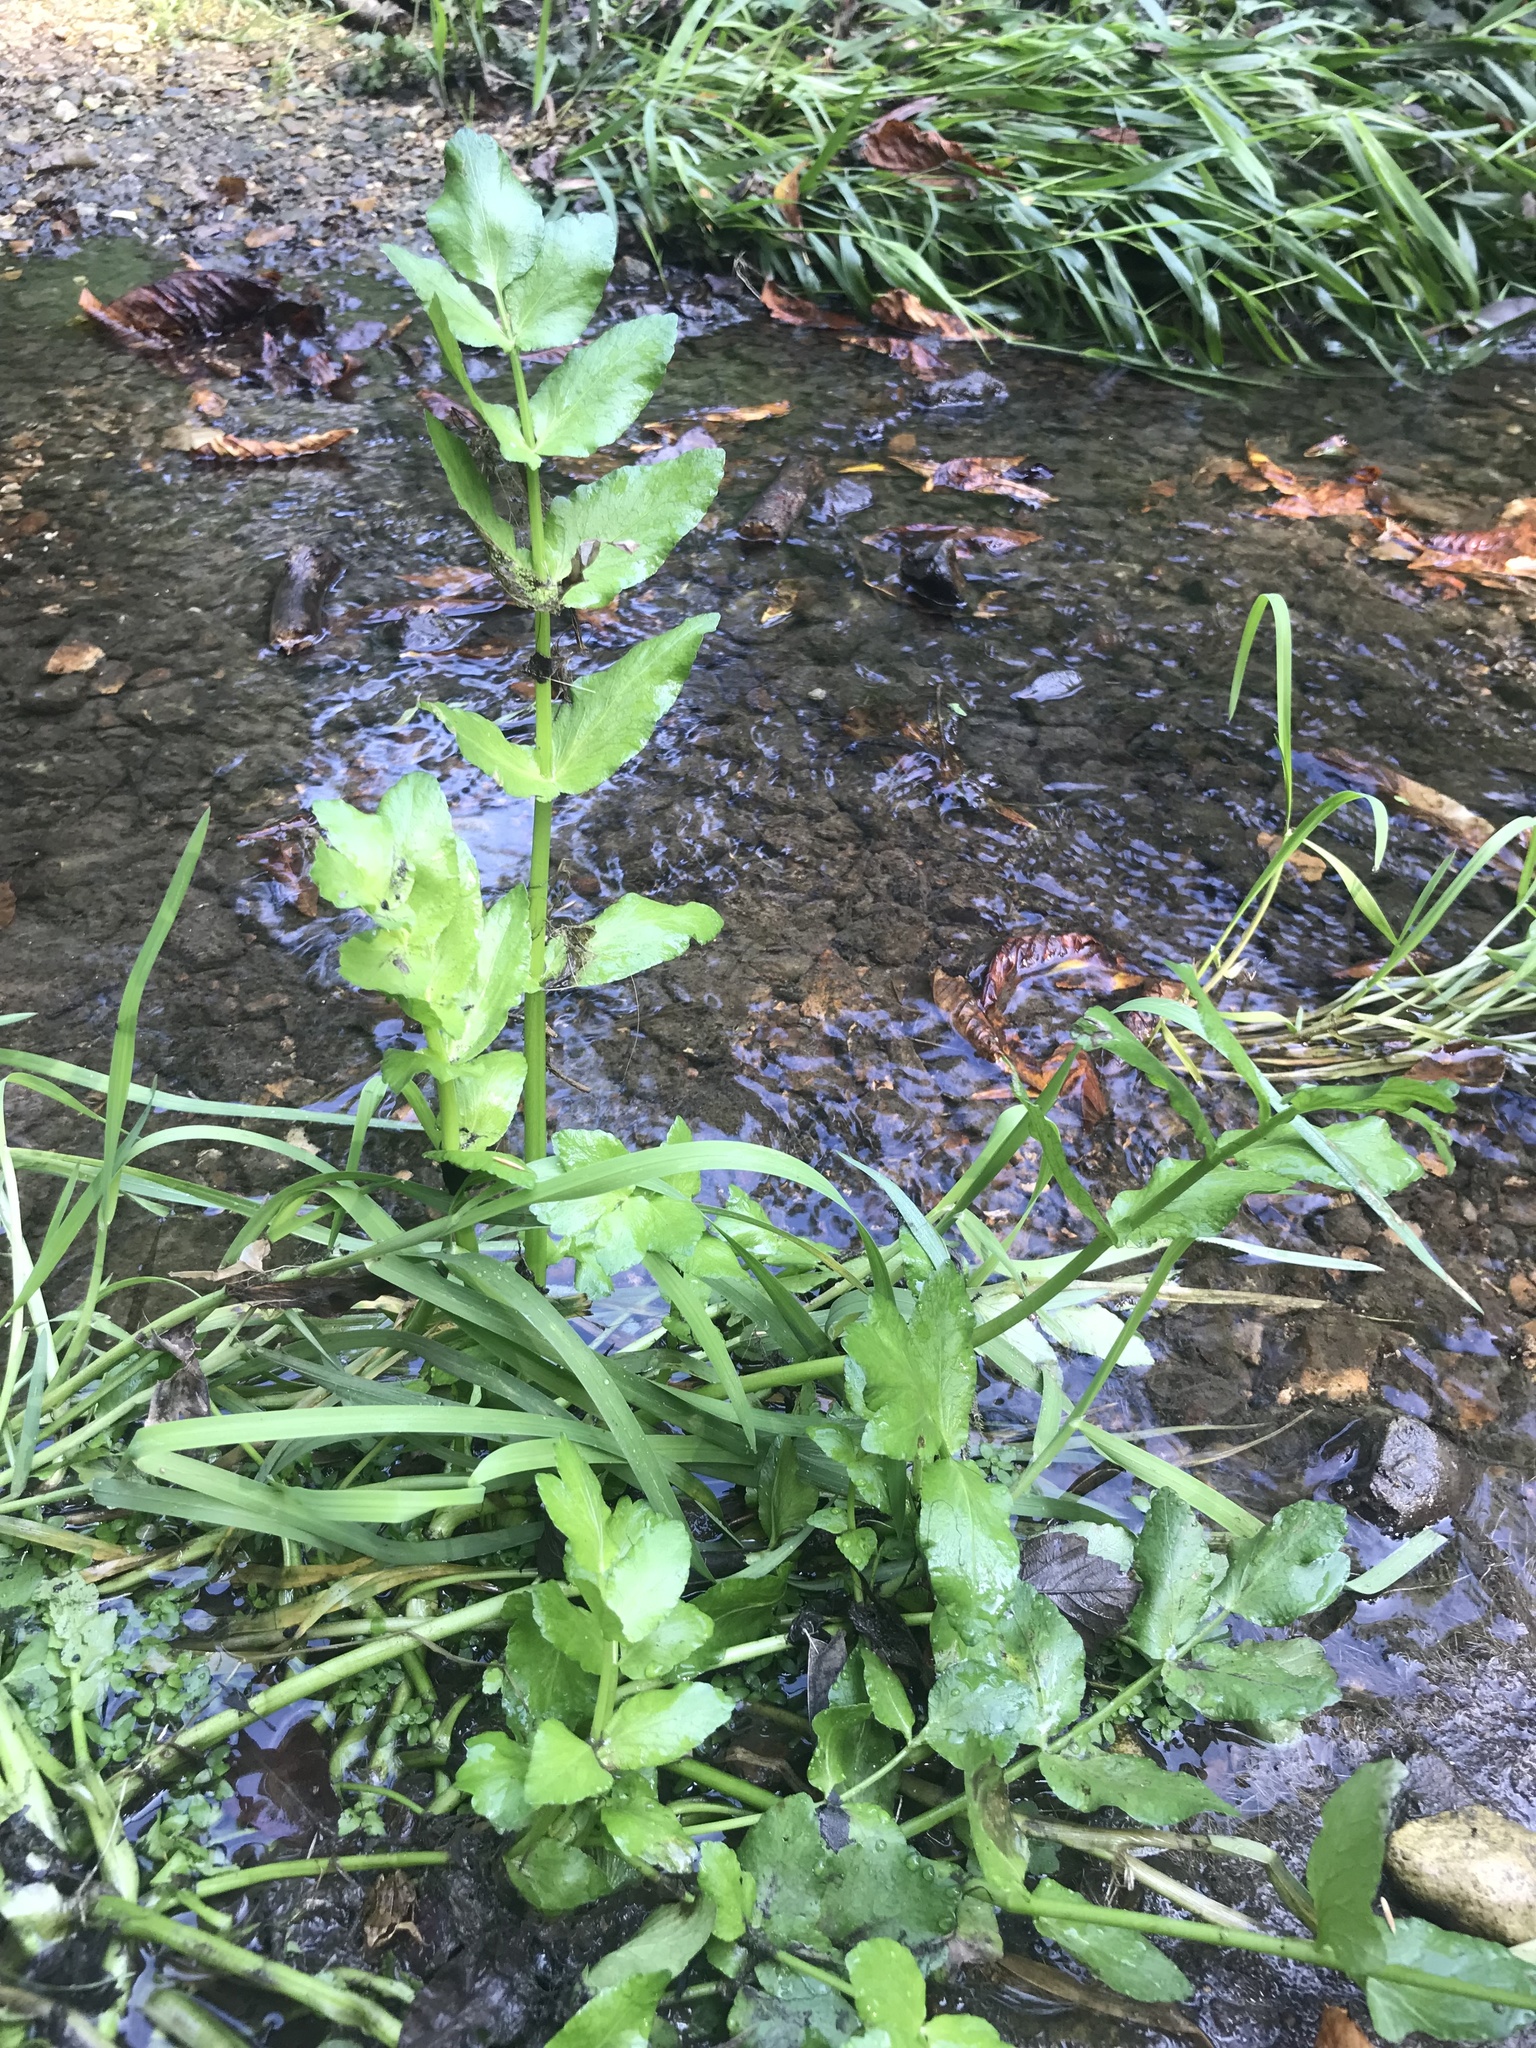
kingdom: Plantae
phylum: Tracheophyta
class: Magnoliopsida
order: Apiales
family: Apiaceae
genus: Helosciadium
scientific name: Helosciadium nodiflorum
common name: Fool's-watercress
